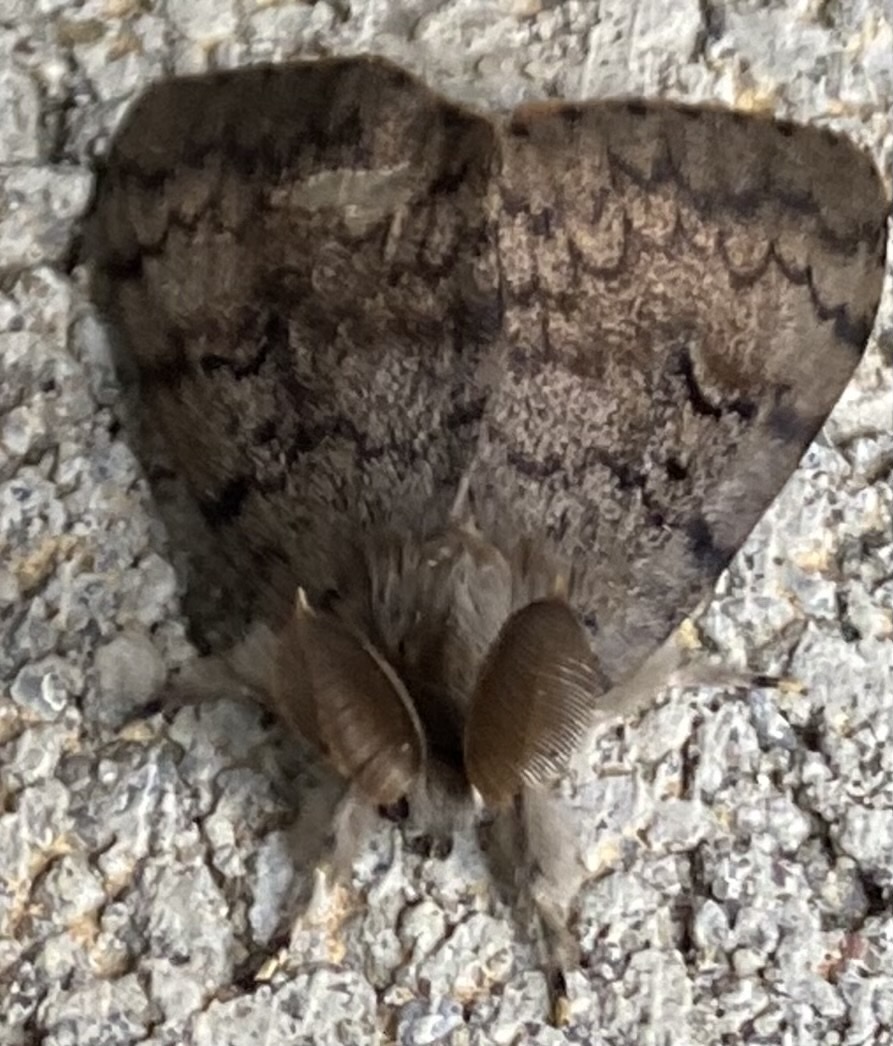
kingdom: Animalia
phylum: Arthropoda
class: Insecta
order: Lepidoptera
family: Erebidae
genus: Lymantria
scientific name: Lymantria dispar
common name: Gypsy moth
